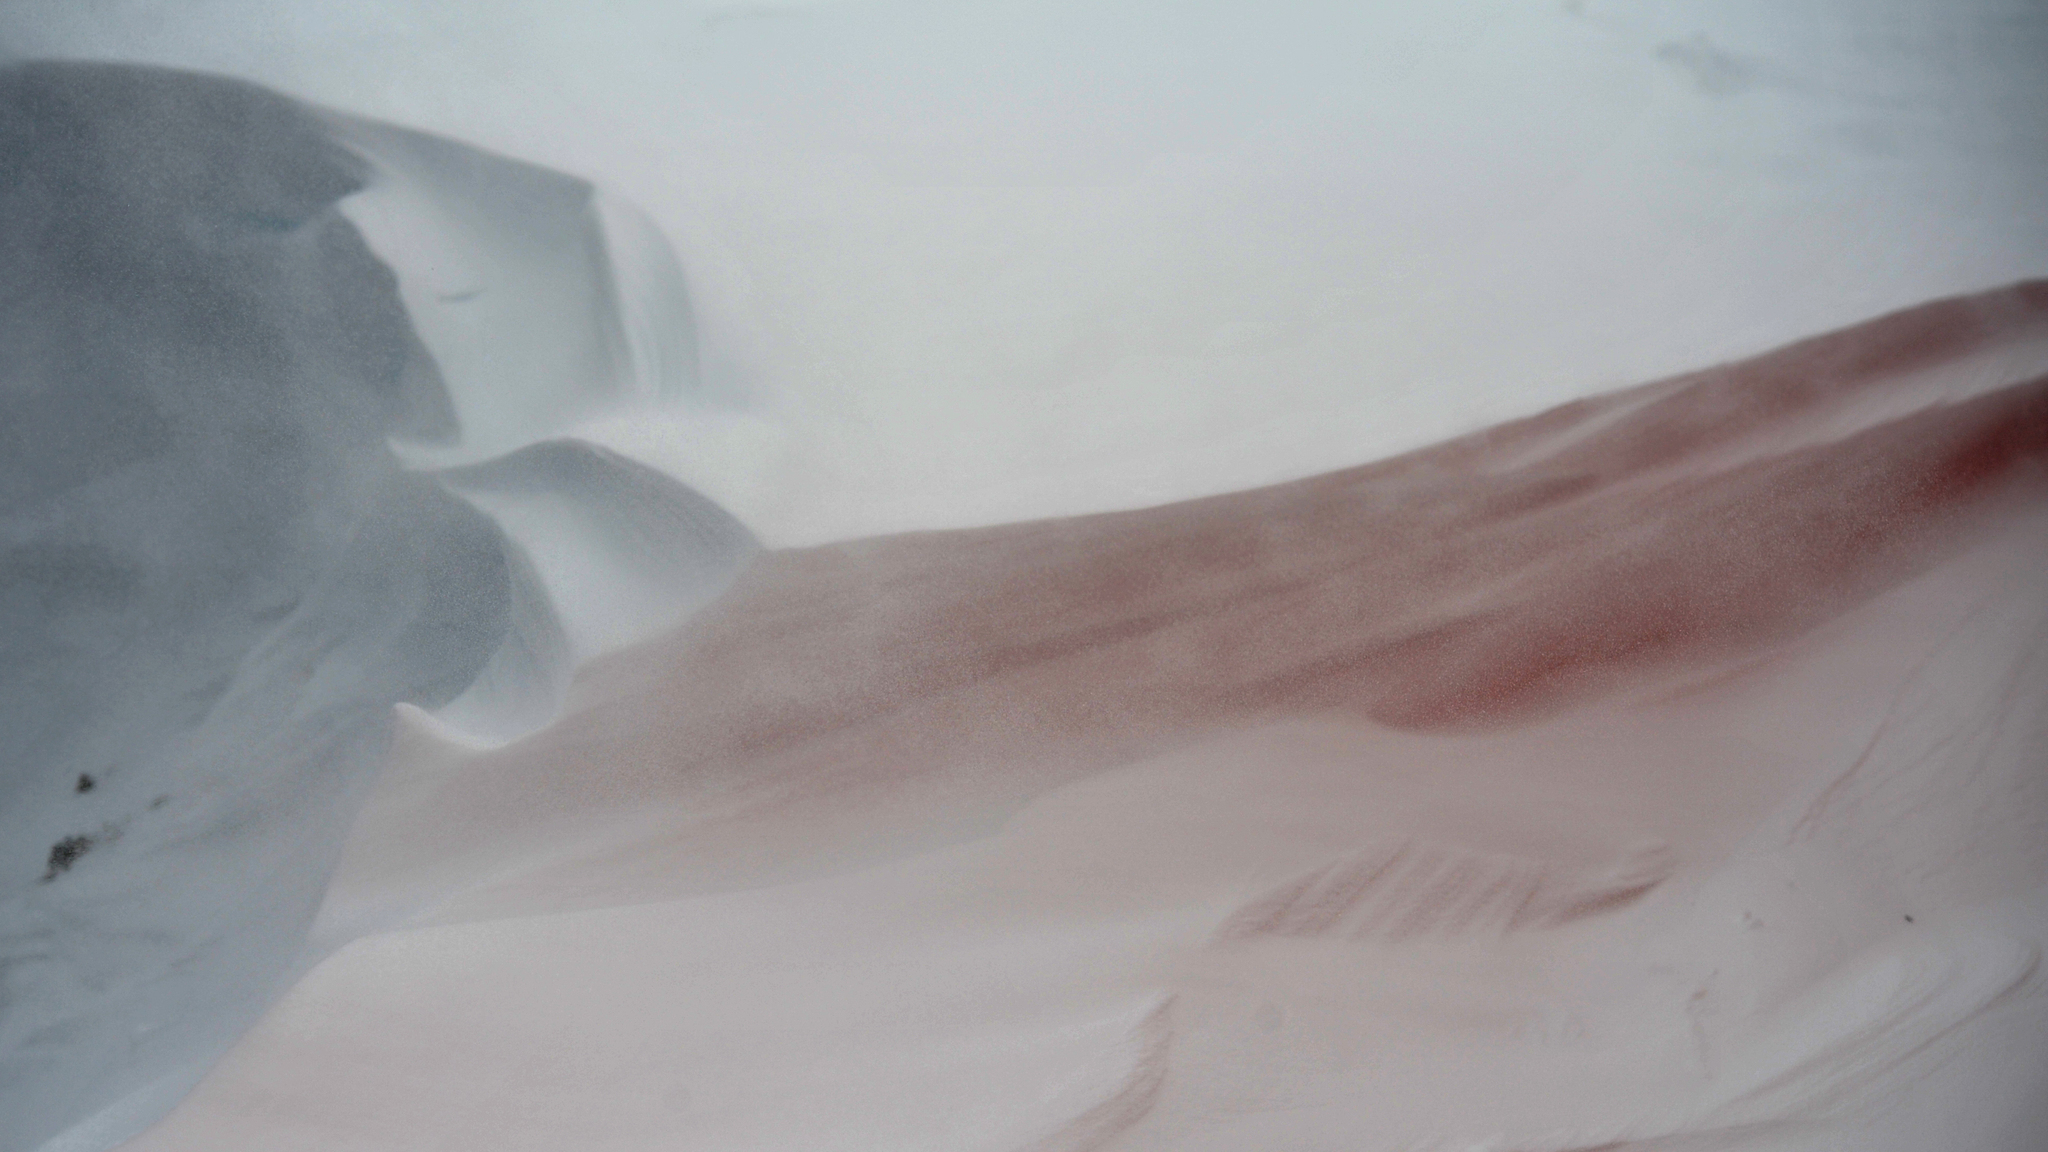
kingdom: Plantae
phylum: Chlorophyta
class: Chlorophyceae
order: Volvocales
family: Chlamydomonadaceae
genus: Chlamydomonas
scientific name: Chlamydomonas nivalis
